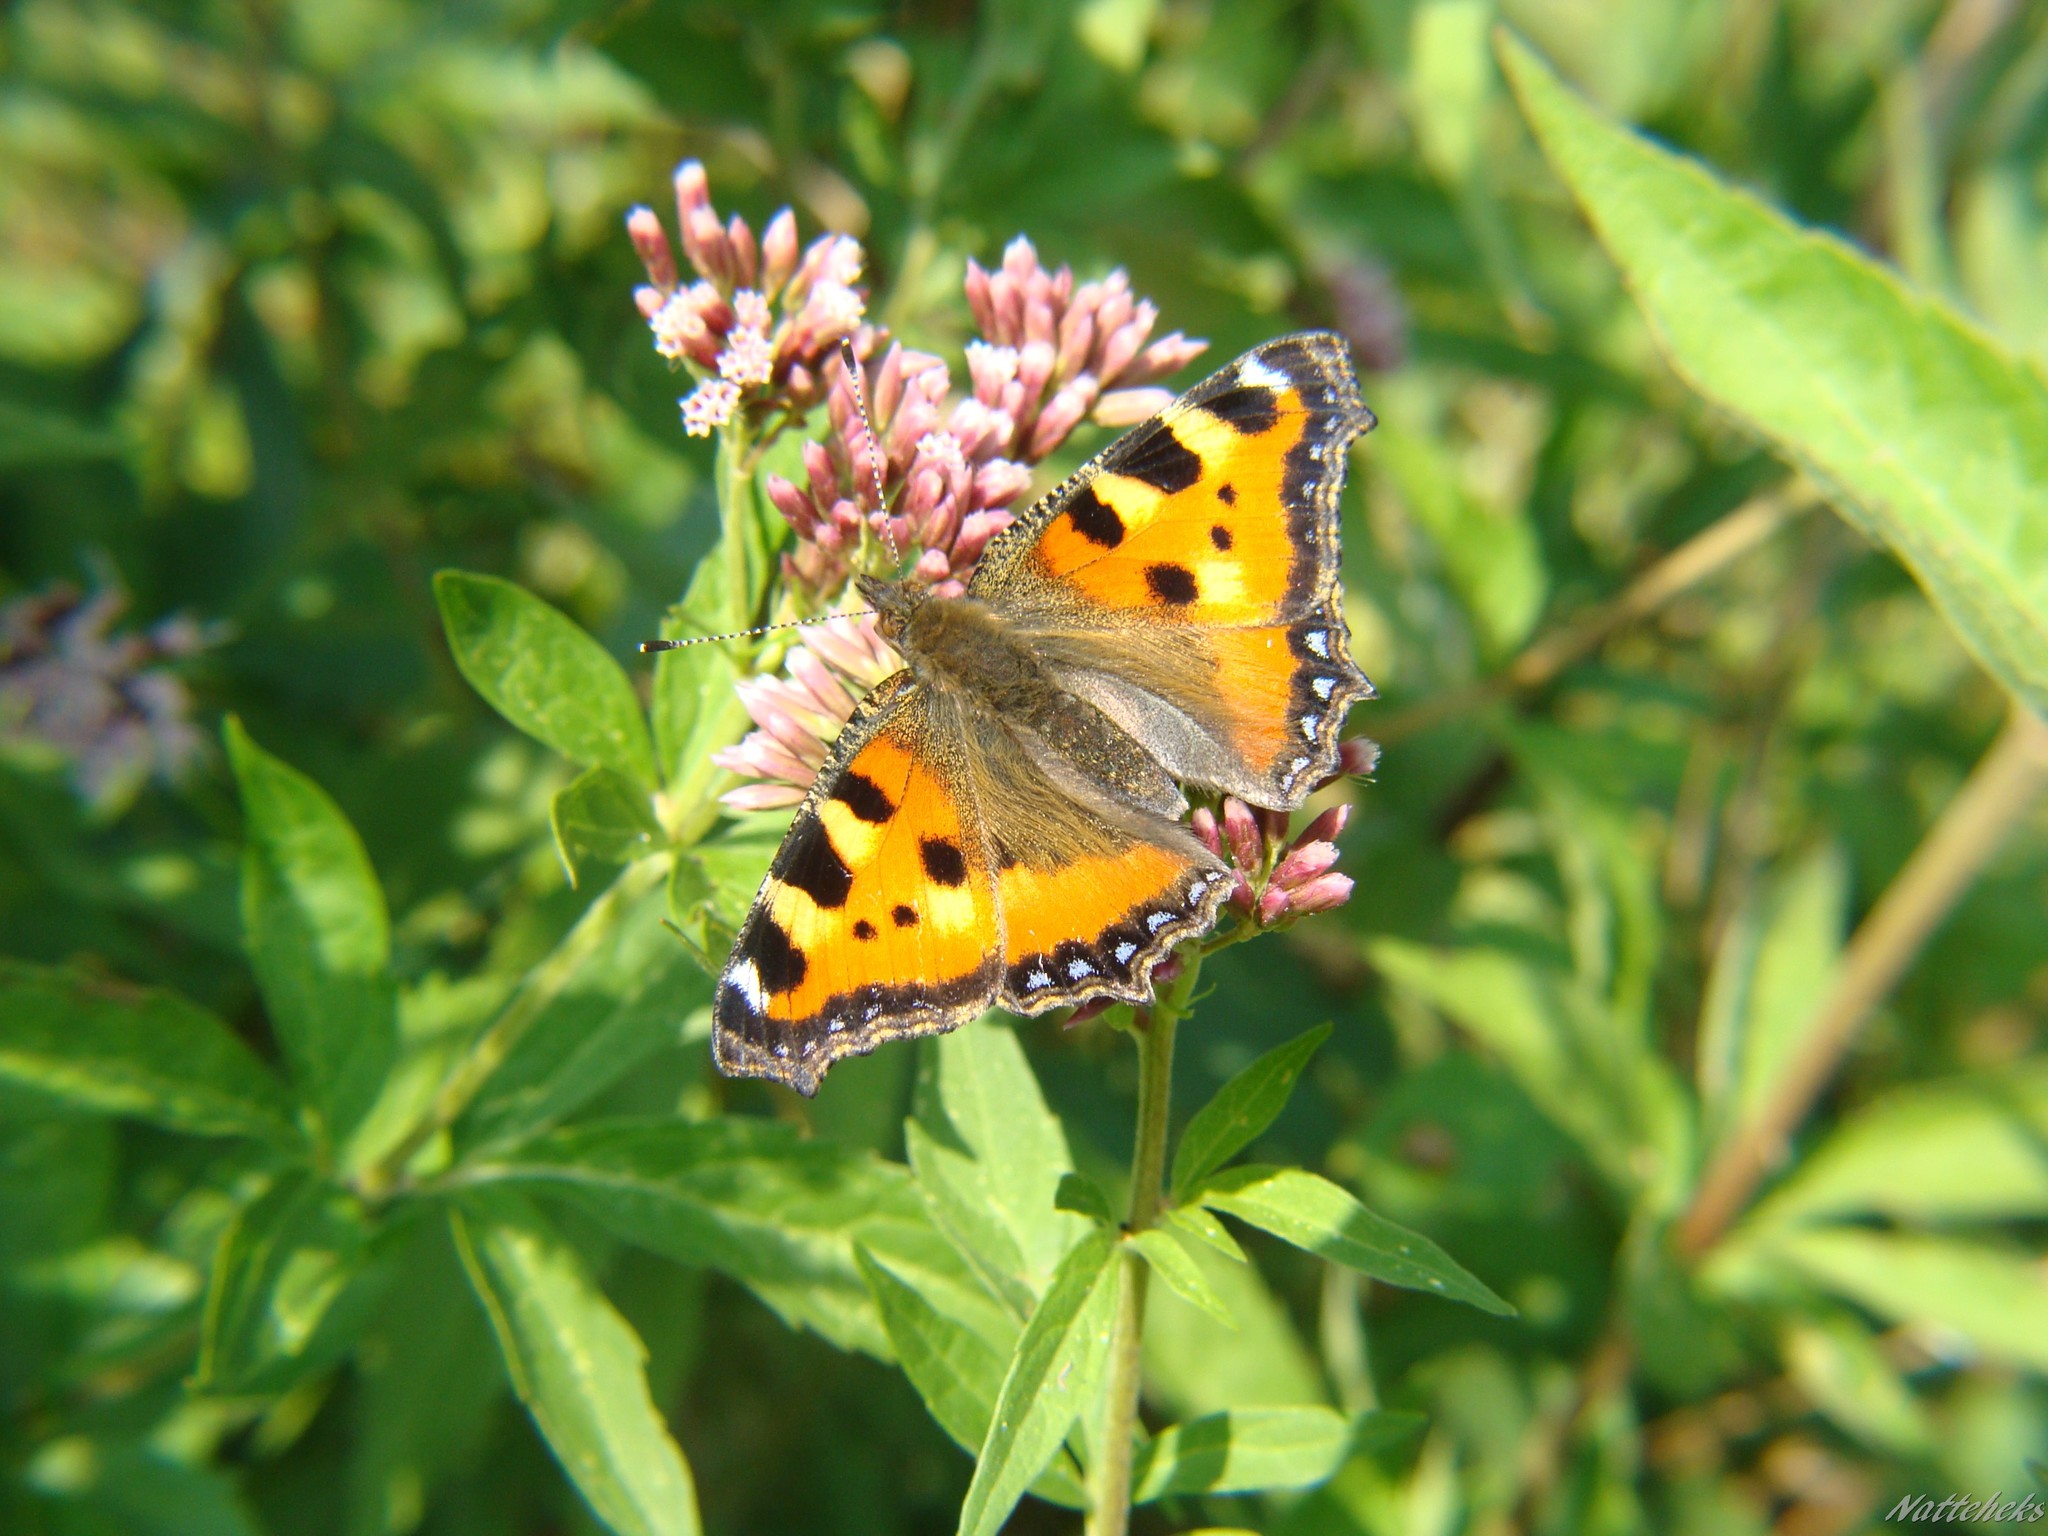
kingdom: Animalia
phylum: Arthropoda
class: Insecta
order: Lepidoptera
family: Nymphalidae
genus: Aglais
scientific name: Aglais urticae
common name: Small tortoiseshell
